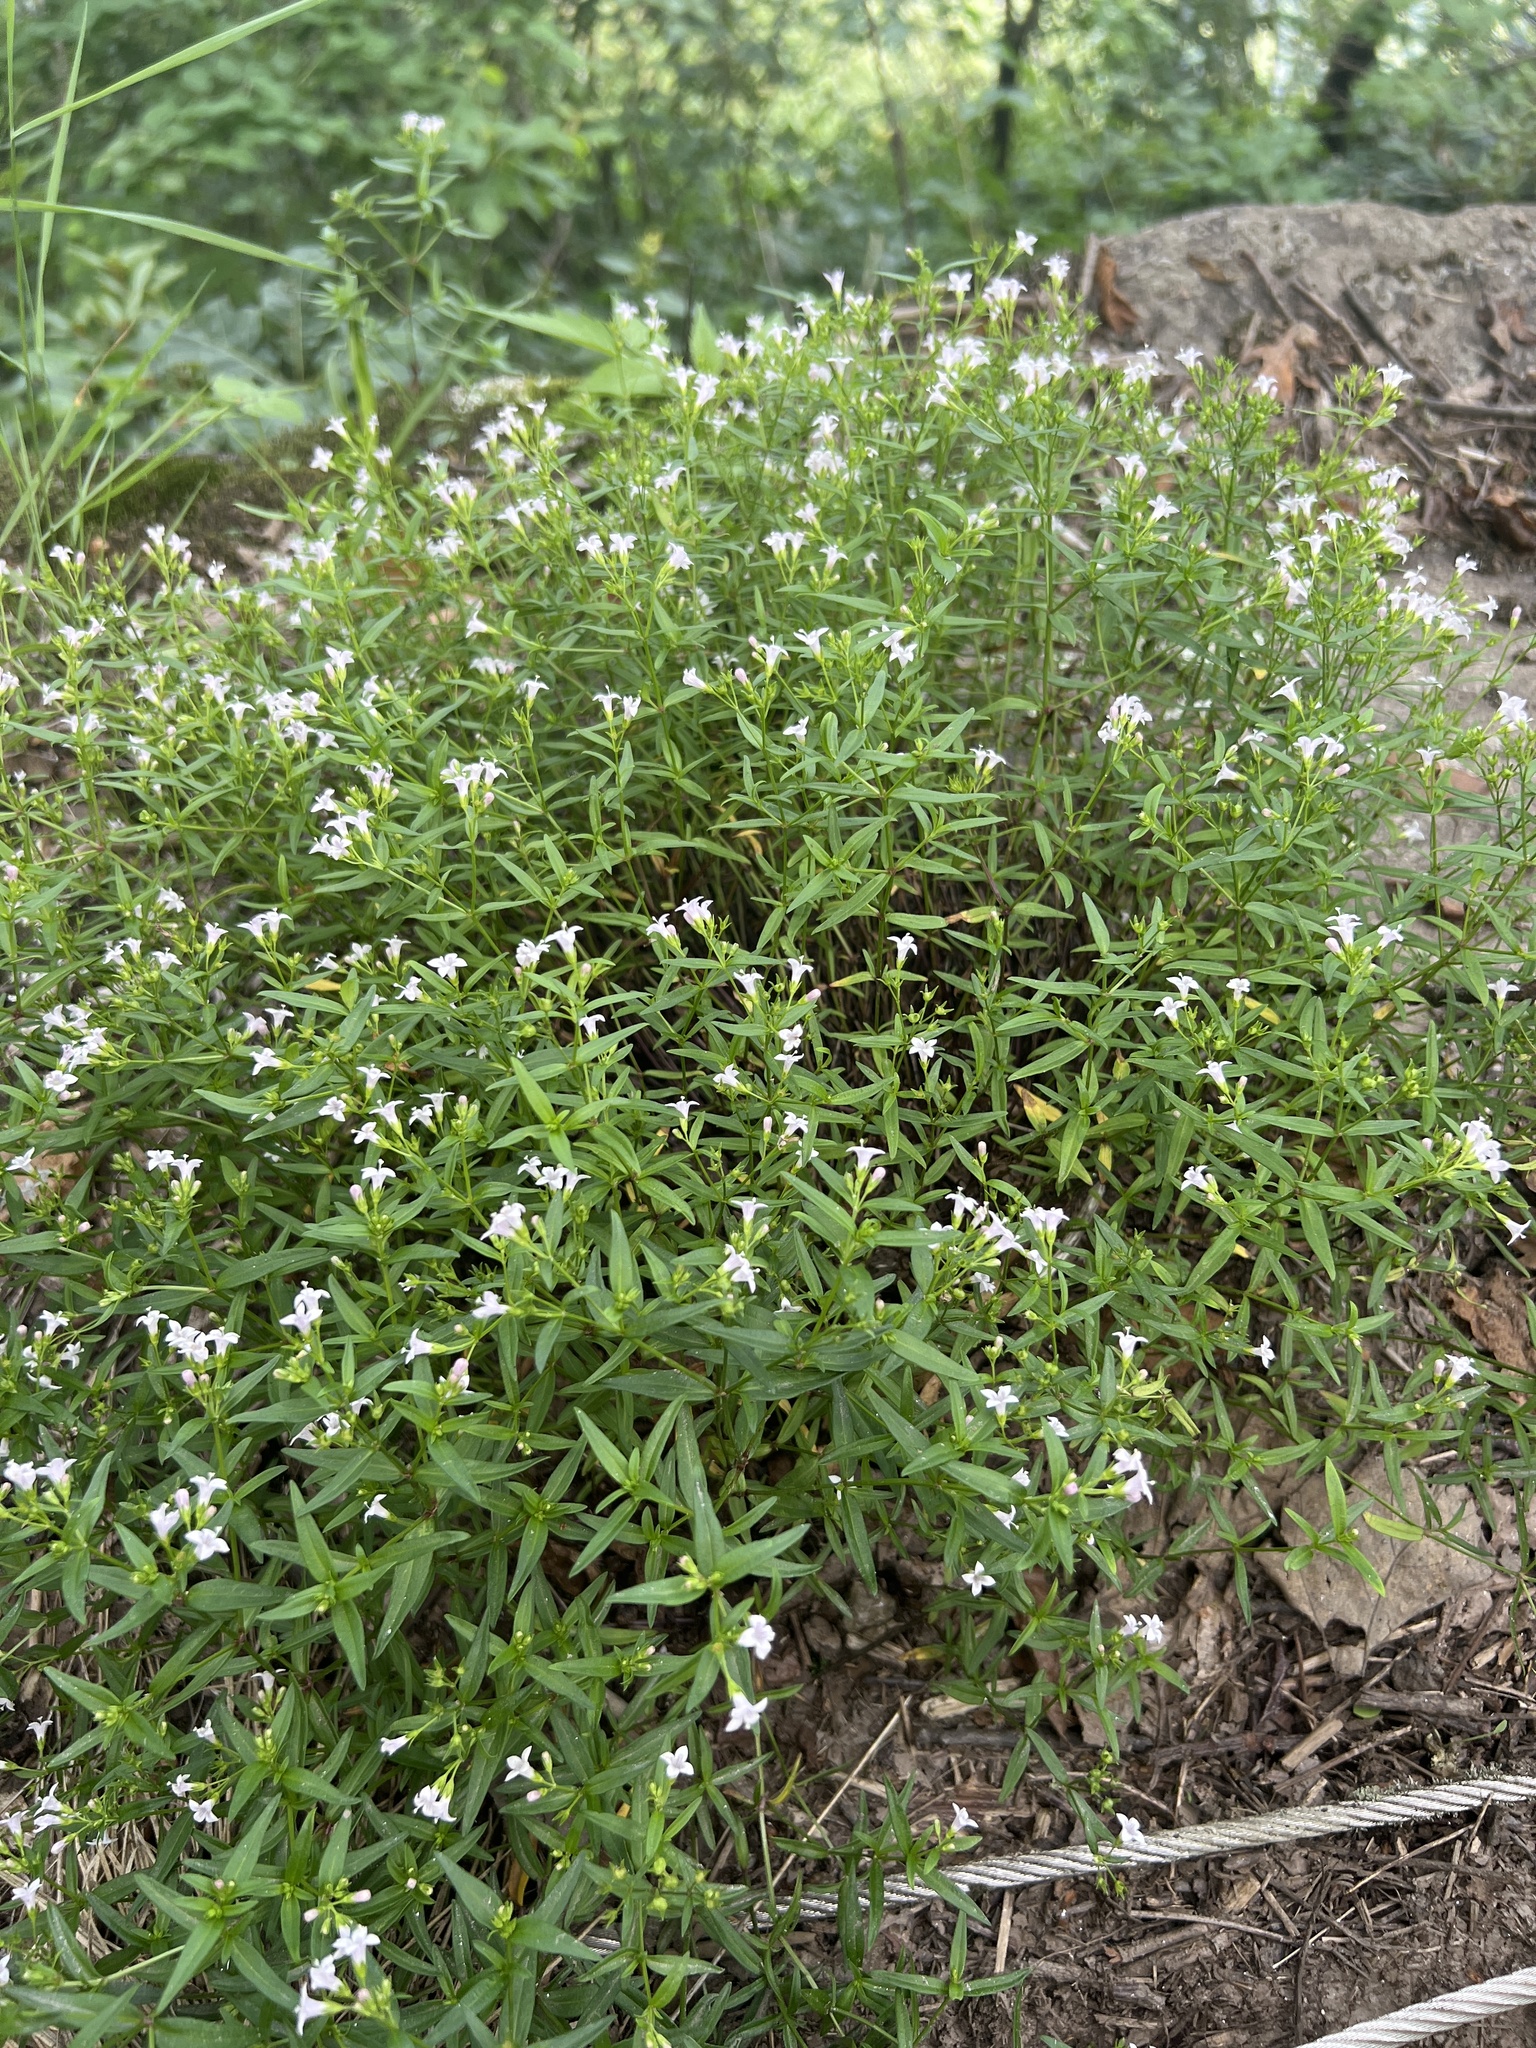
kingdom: Plantae
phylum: Tracheophyta
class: Magnoliopsida
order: Gentianales
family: Rubiaceae
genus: Houstonia
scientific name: Houstonia longifolia
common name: Long-leaved bluets
